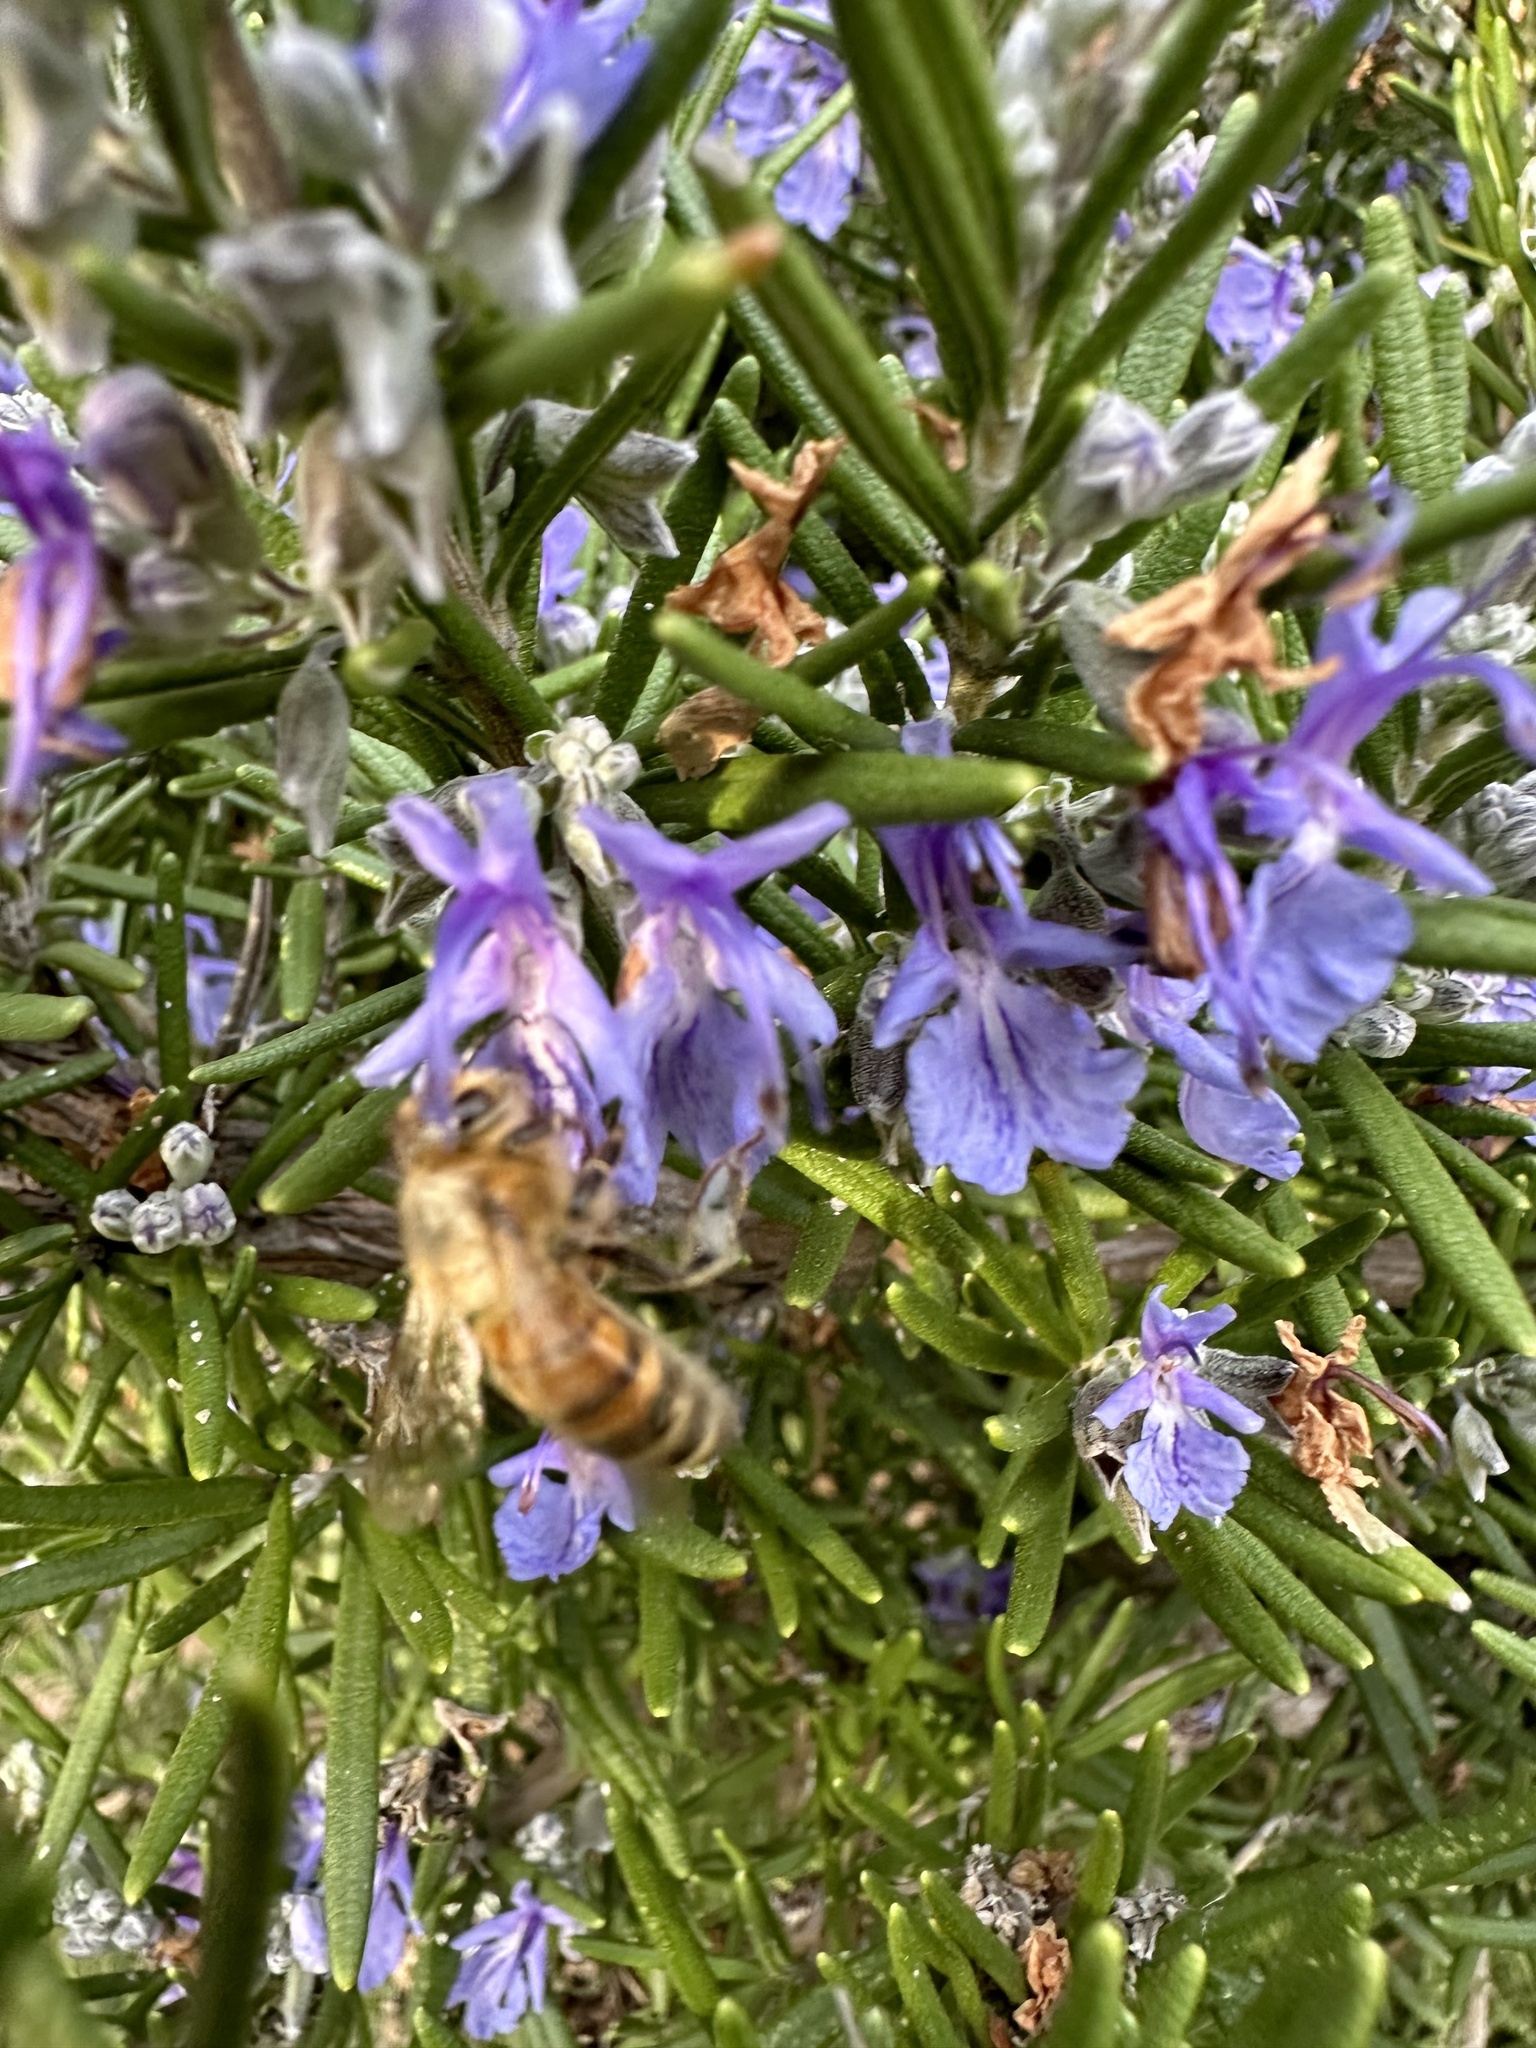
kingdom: Animalia
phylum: Arthropoda
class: Insecta
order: Hymenoptera
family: Apidae
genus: Apis
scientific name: Apis mellifera
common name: Honey bee
